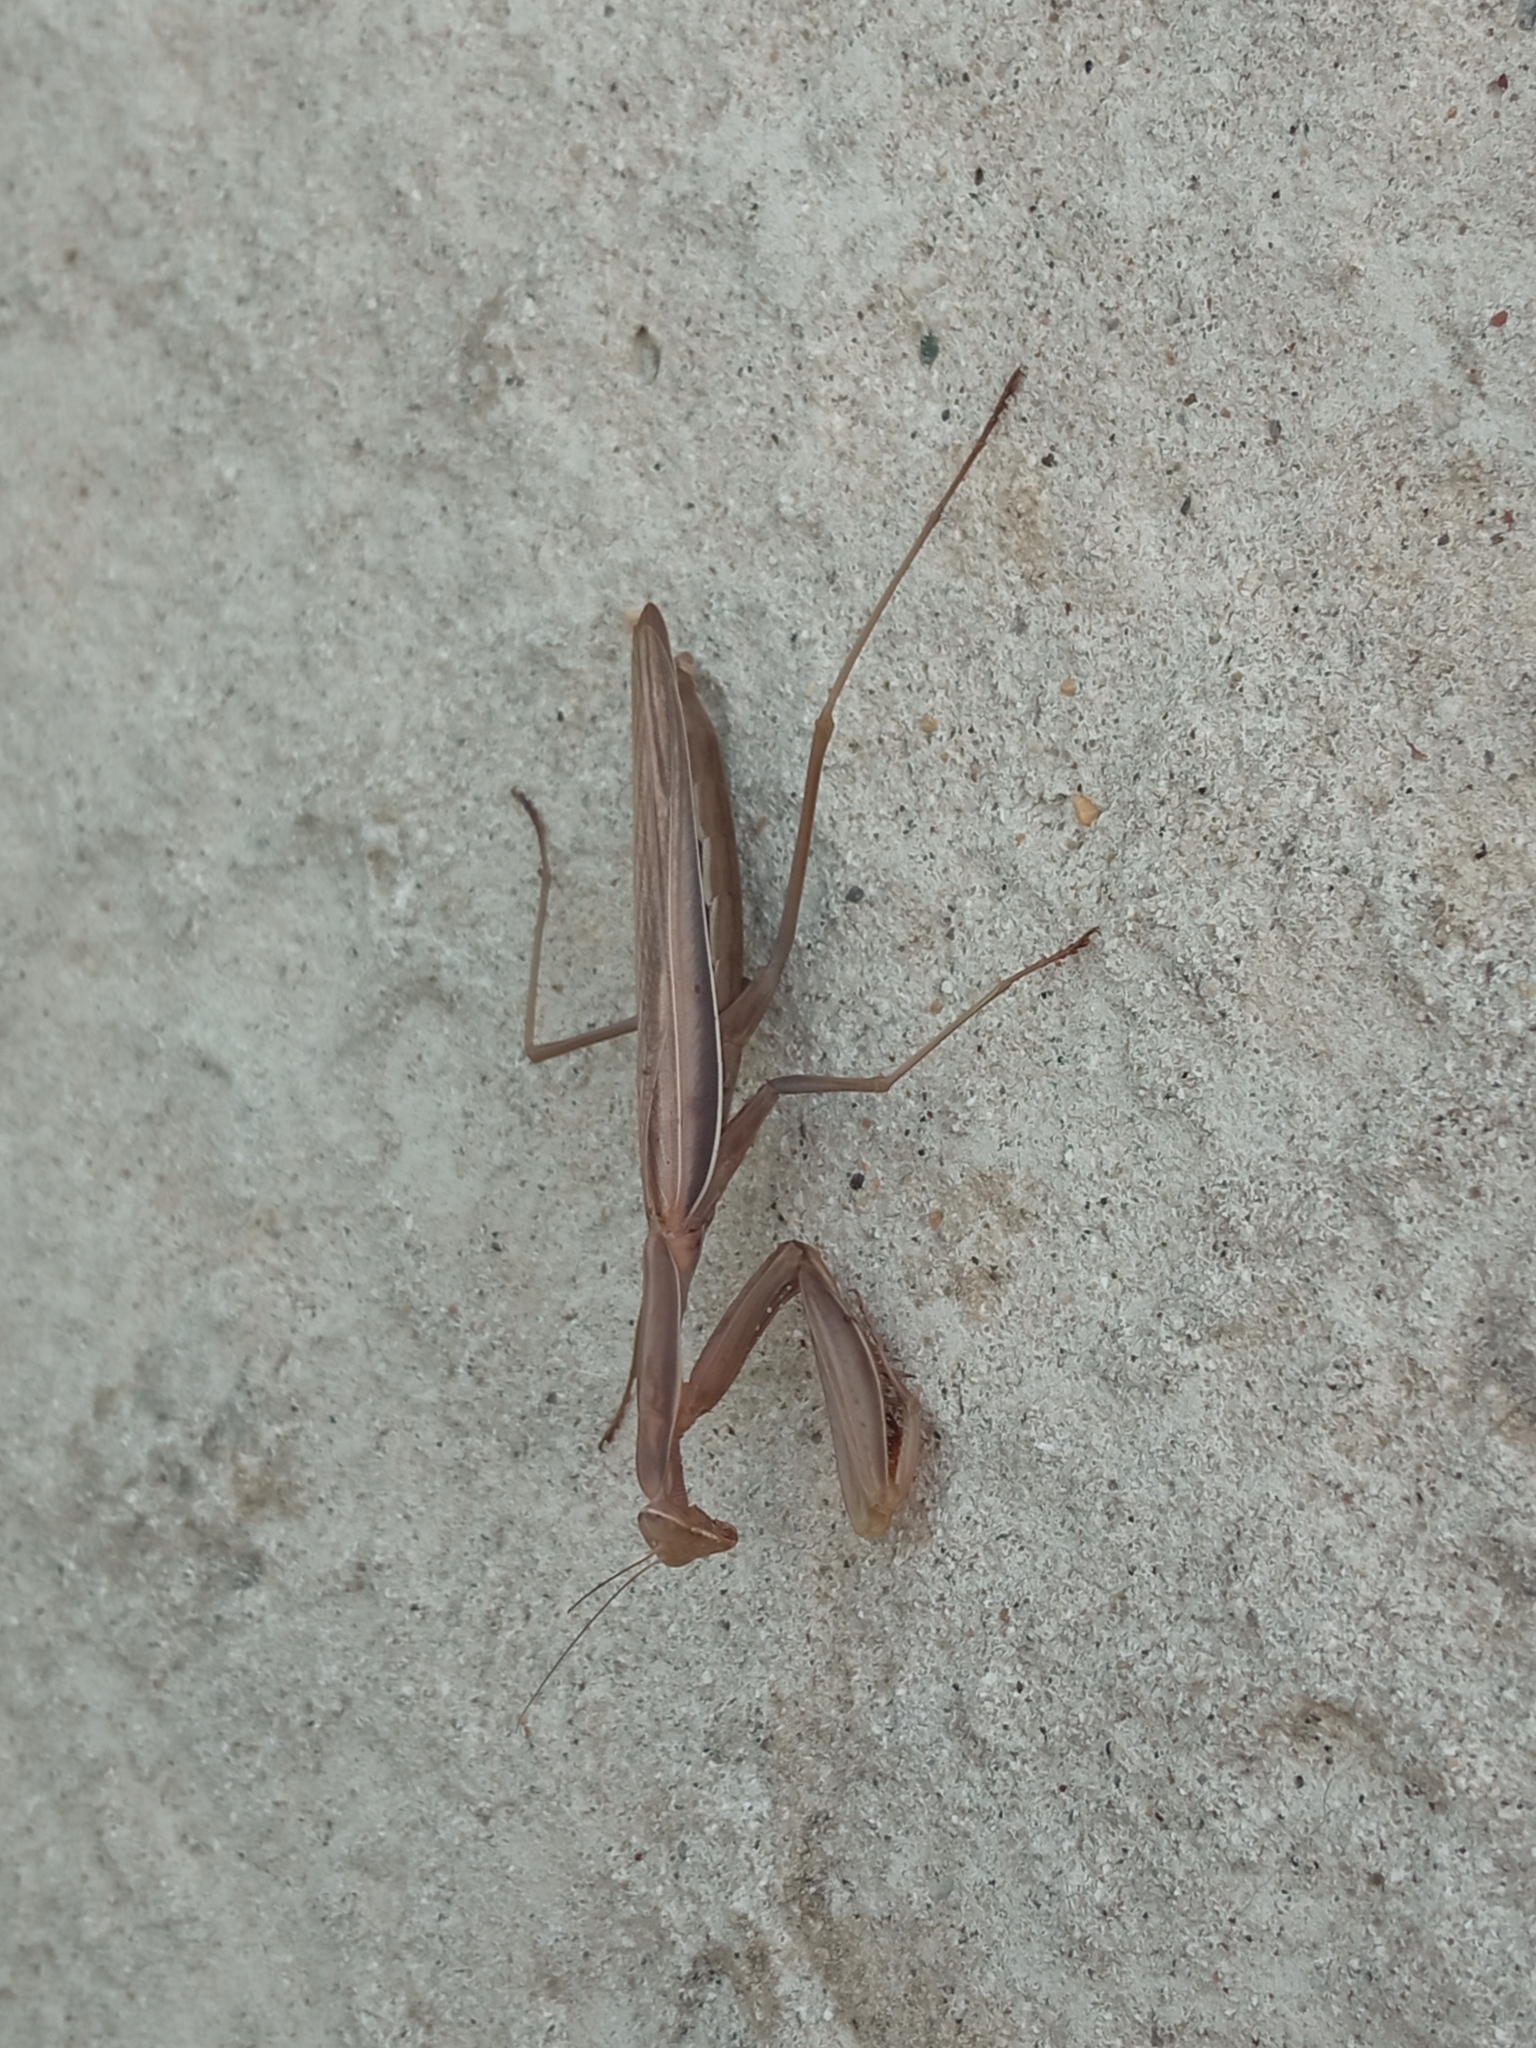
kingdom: Animalia
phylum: Arthropoda
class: Insecta
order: Mantodea
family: Mantidae
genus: Mantis
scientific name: Mantis religiosa
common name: Praying mantis
